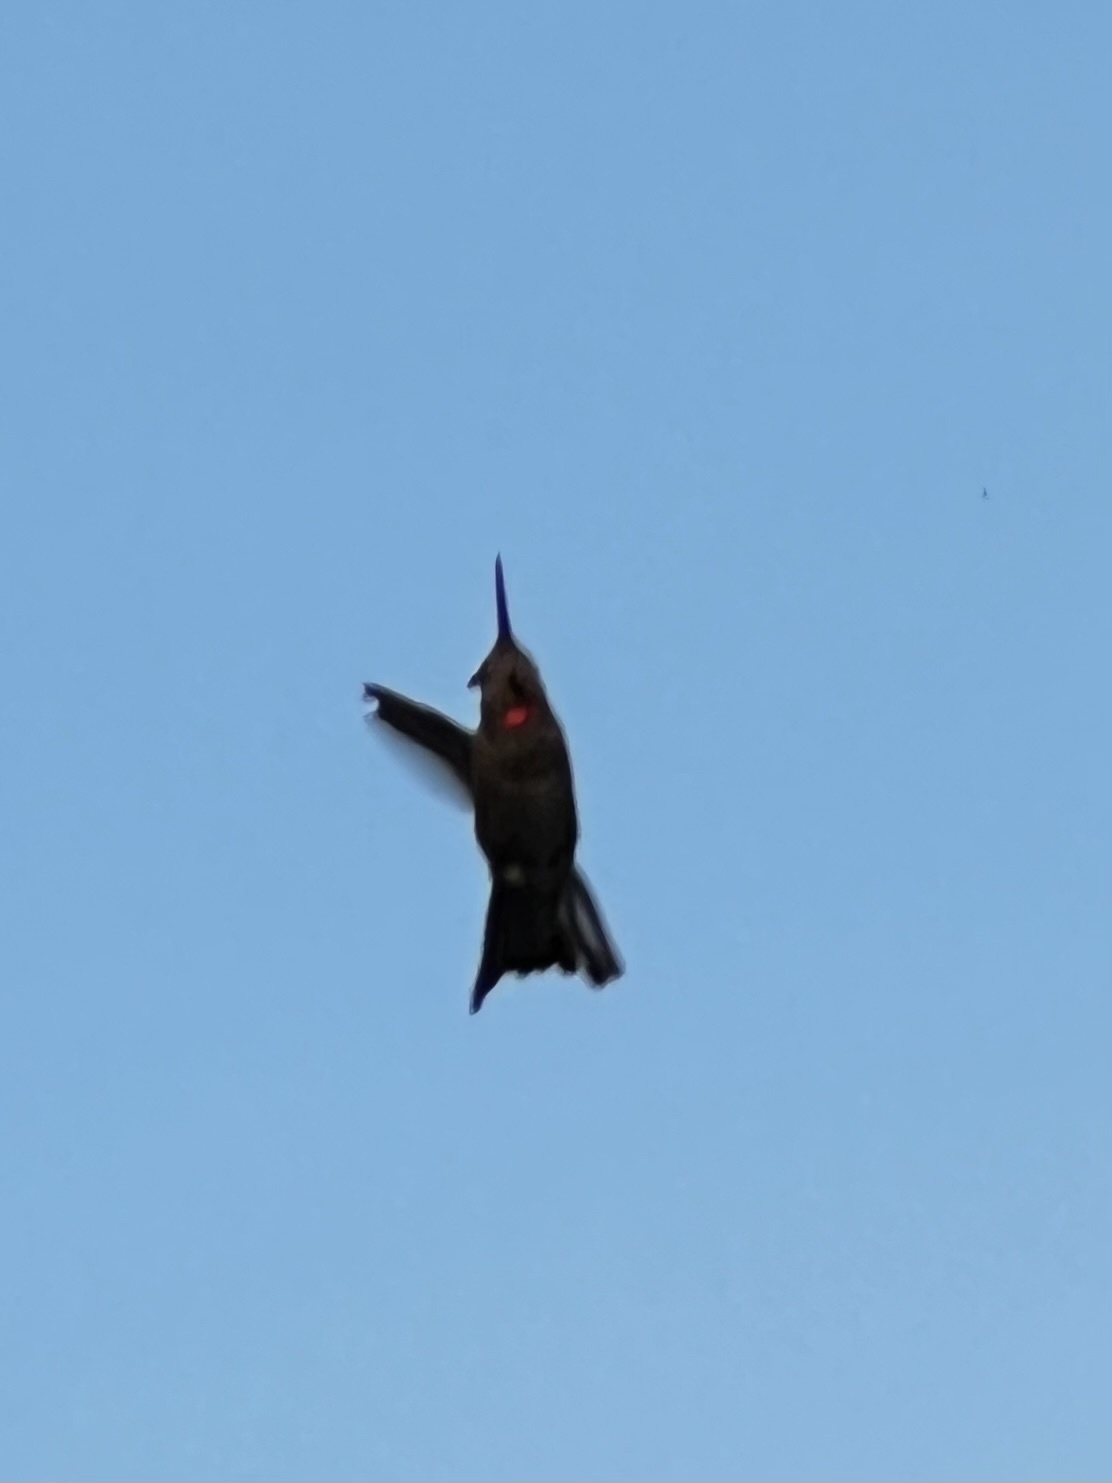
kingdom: Animalia
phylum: Chordata
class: Aves
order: Apodiformes
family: Trochilidae
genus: Calypte
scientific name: Calypte anna
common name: Anna's hummingbird
